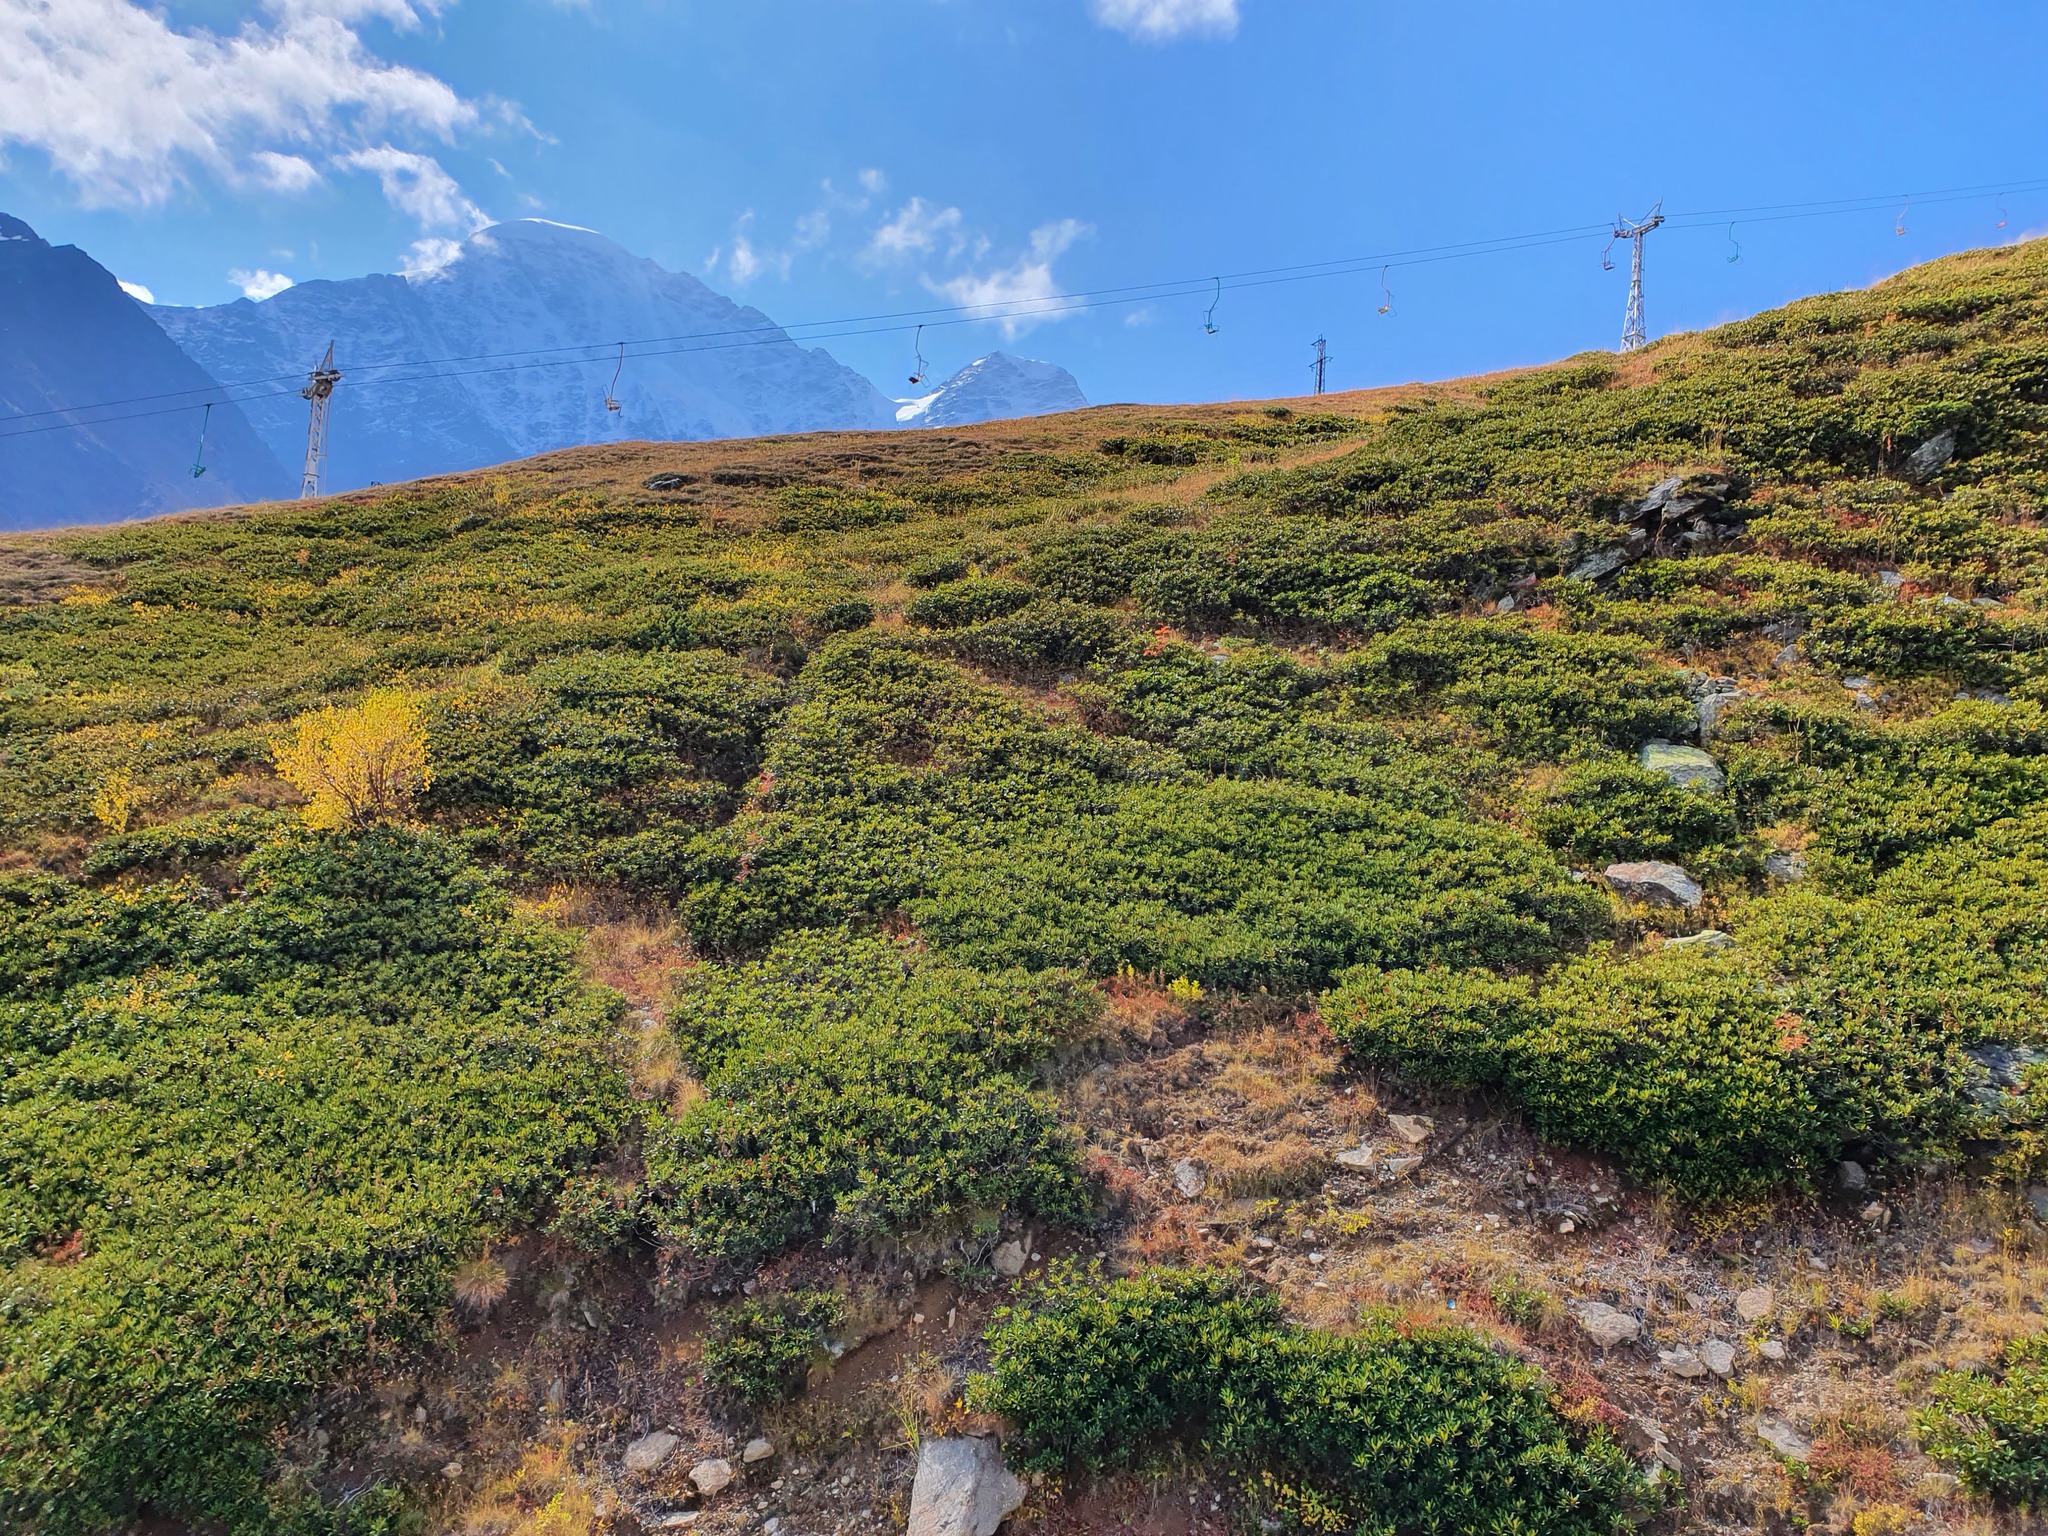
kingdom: Plantae
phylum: Tracheophyta
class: Magnoliopsida
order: Ericales
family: Ericaceae
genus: Rhododendron
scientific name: Rhododendron caucasicum
